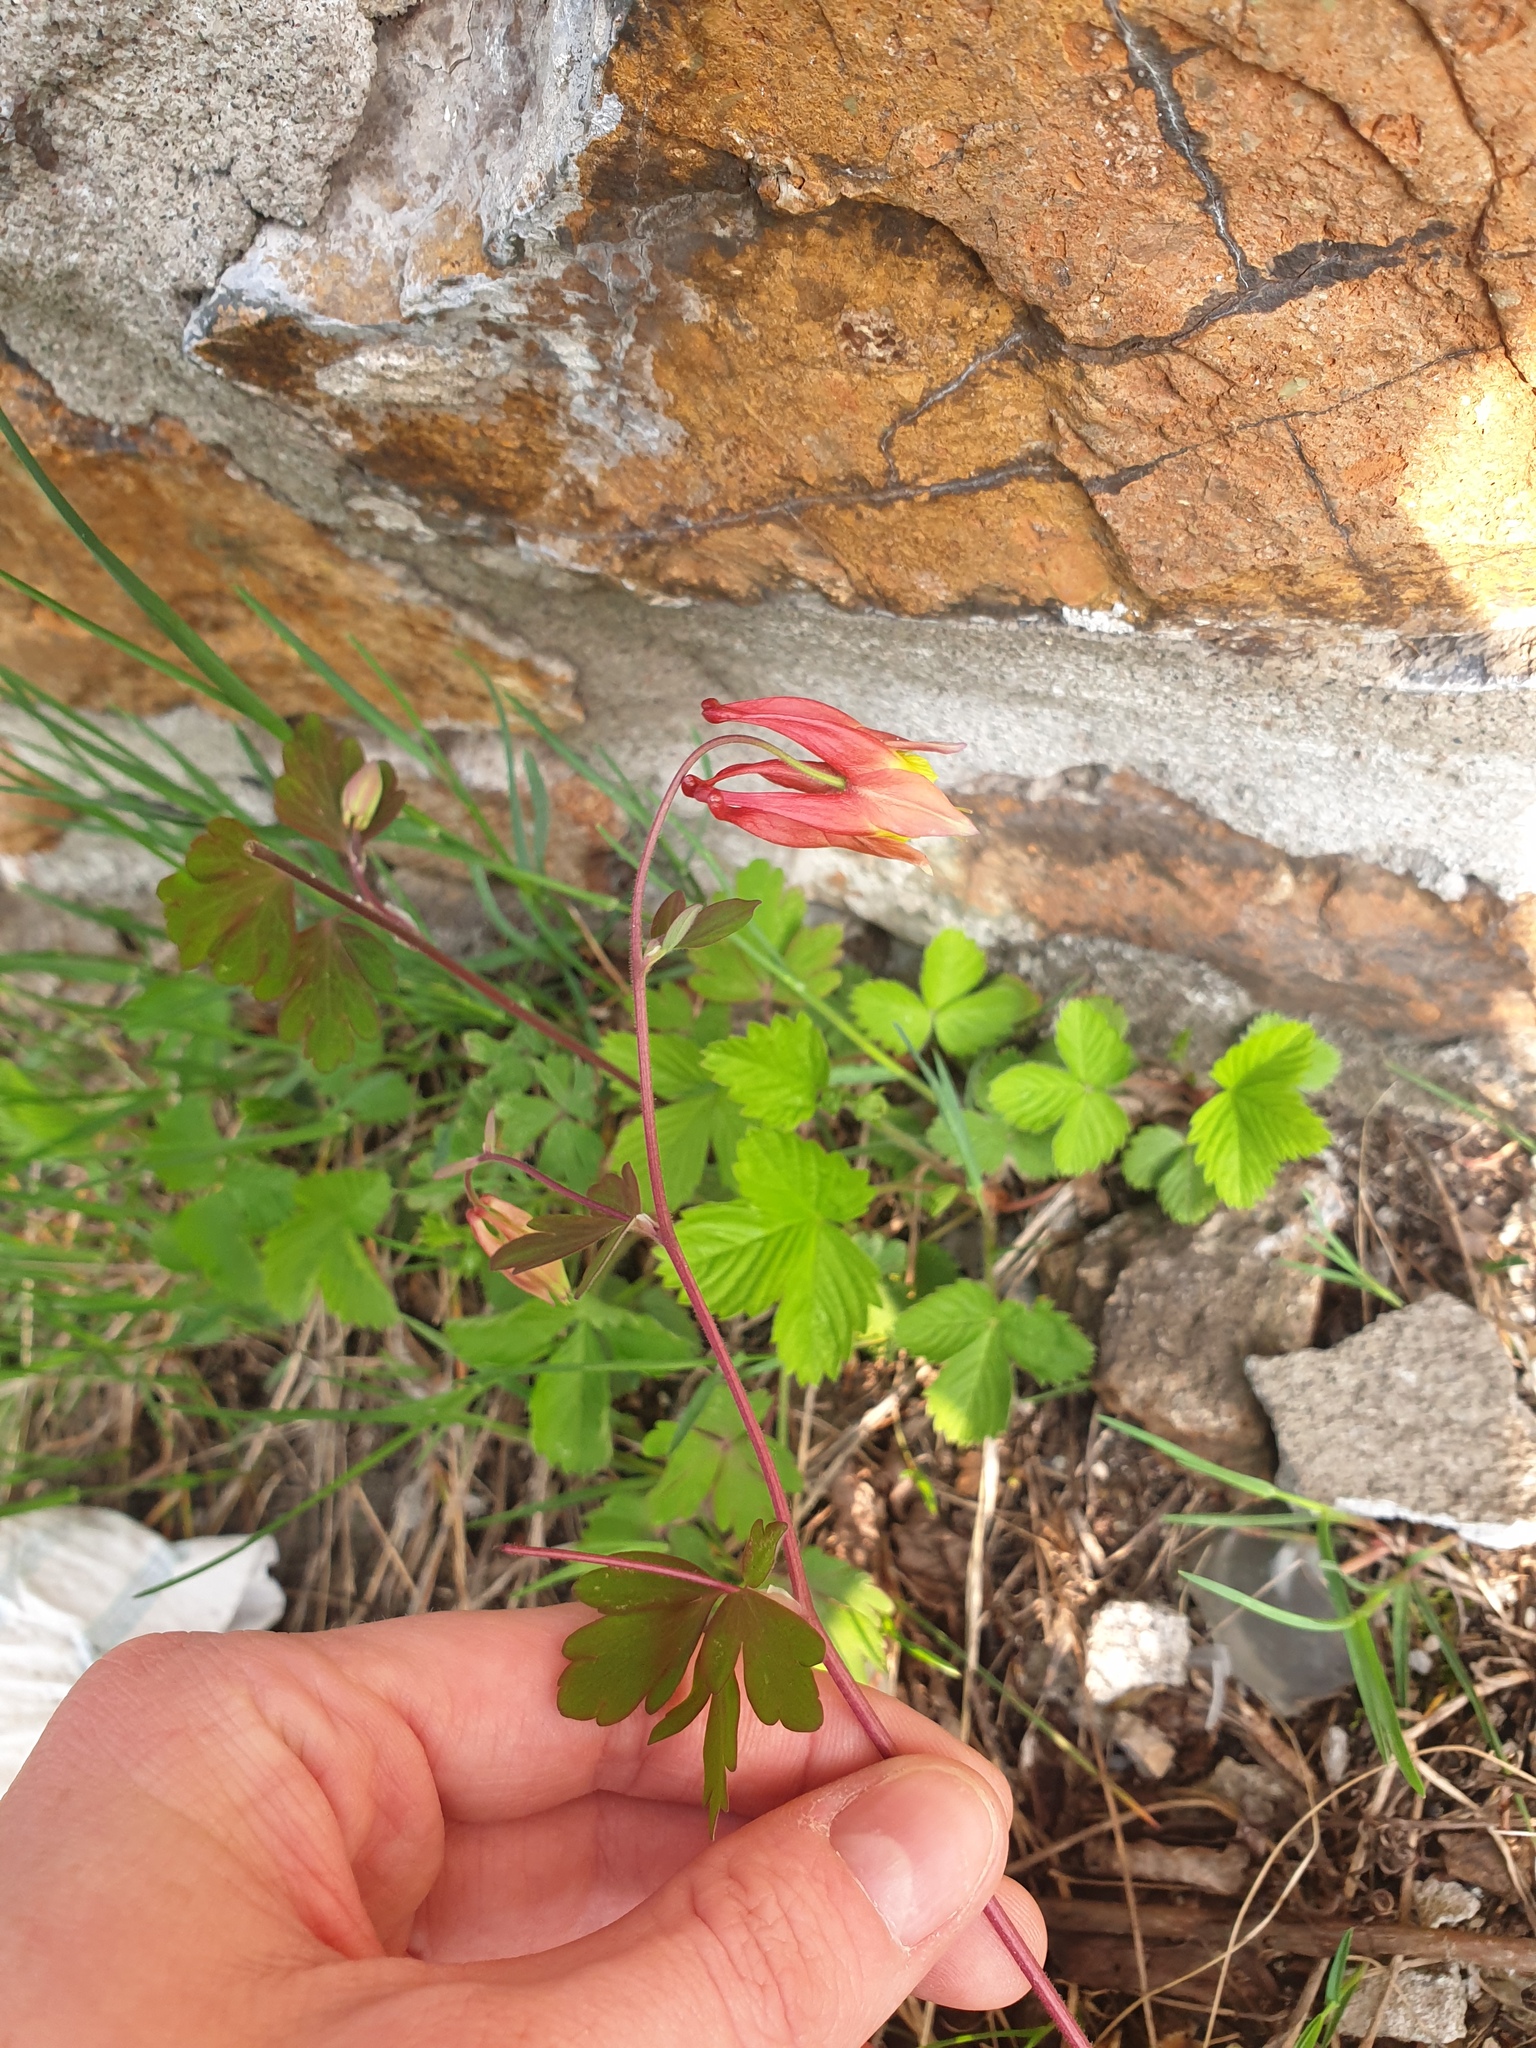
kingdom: Plantae
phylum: Tracheophyta
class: Magnoliopsida
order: Ranunculales
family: Ranunculaceae
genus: Aquilegia
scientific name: Aquilegia canadensis
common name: American columbine
